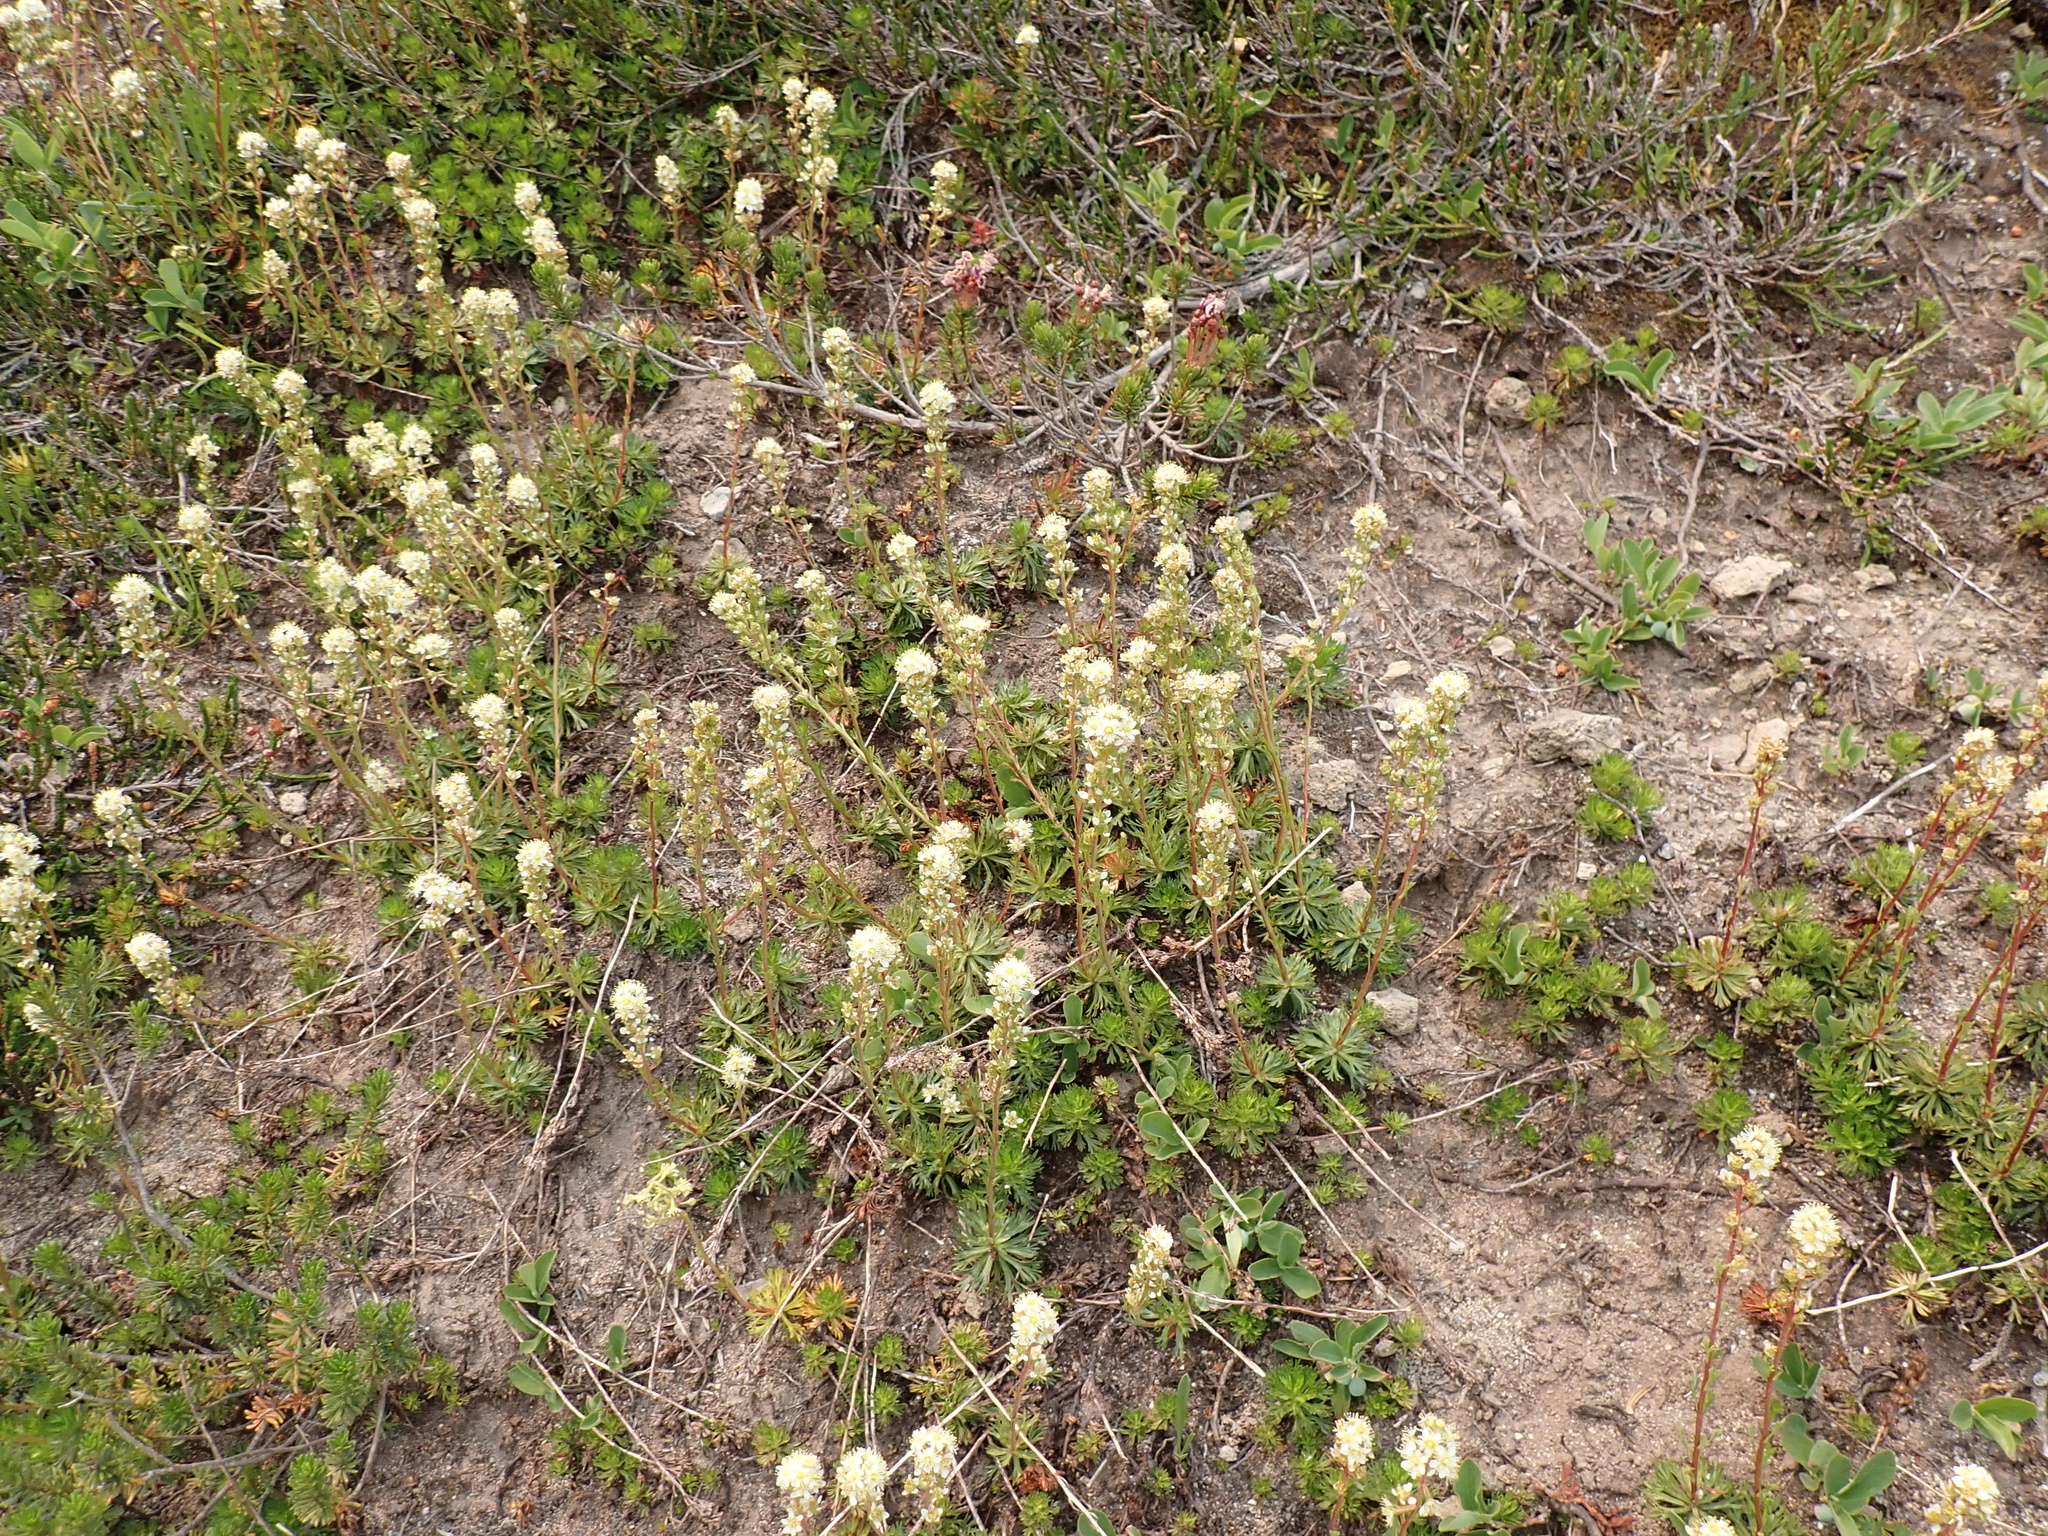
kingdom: Plantae
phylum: Tracheophyta
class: Magnoliopsida
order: Rosales
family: Rosaceae
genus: Luetkea
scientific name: Luetkea pectinata
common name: Partridgefoot
